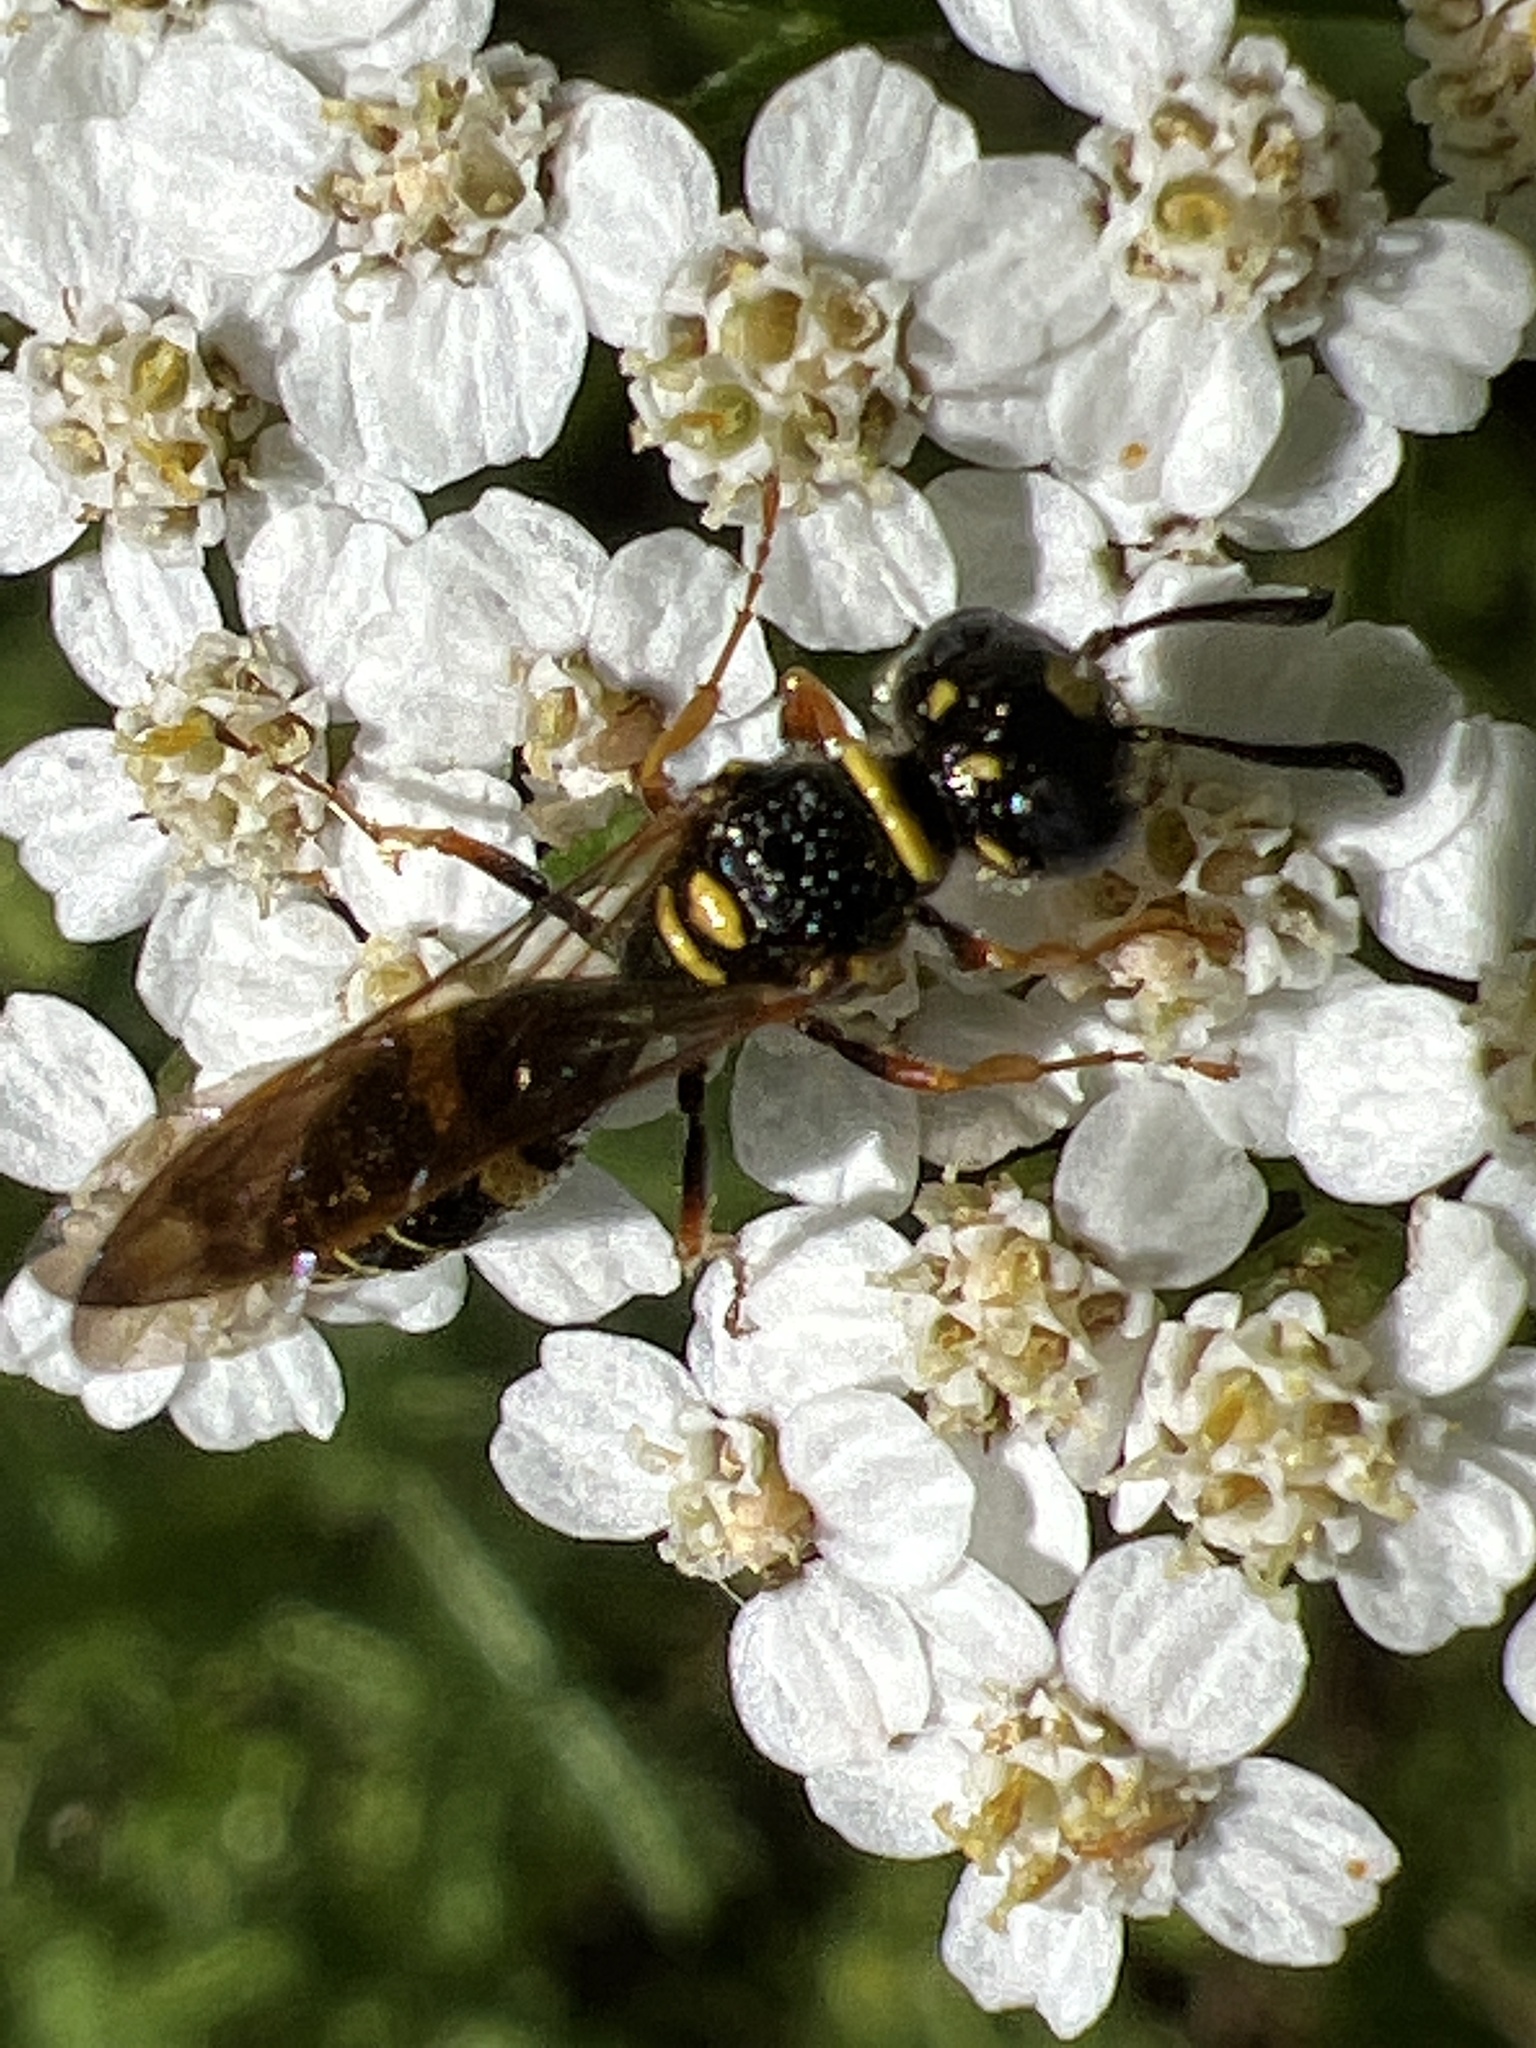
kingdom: Animalia
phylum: Arthropoda
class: Insecta
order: Hymenoptera
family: Crabronidae
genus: Philanthus
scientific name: Philanthus gibbosus
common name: Humped beewolf
